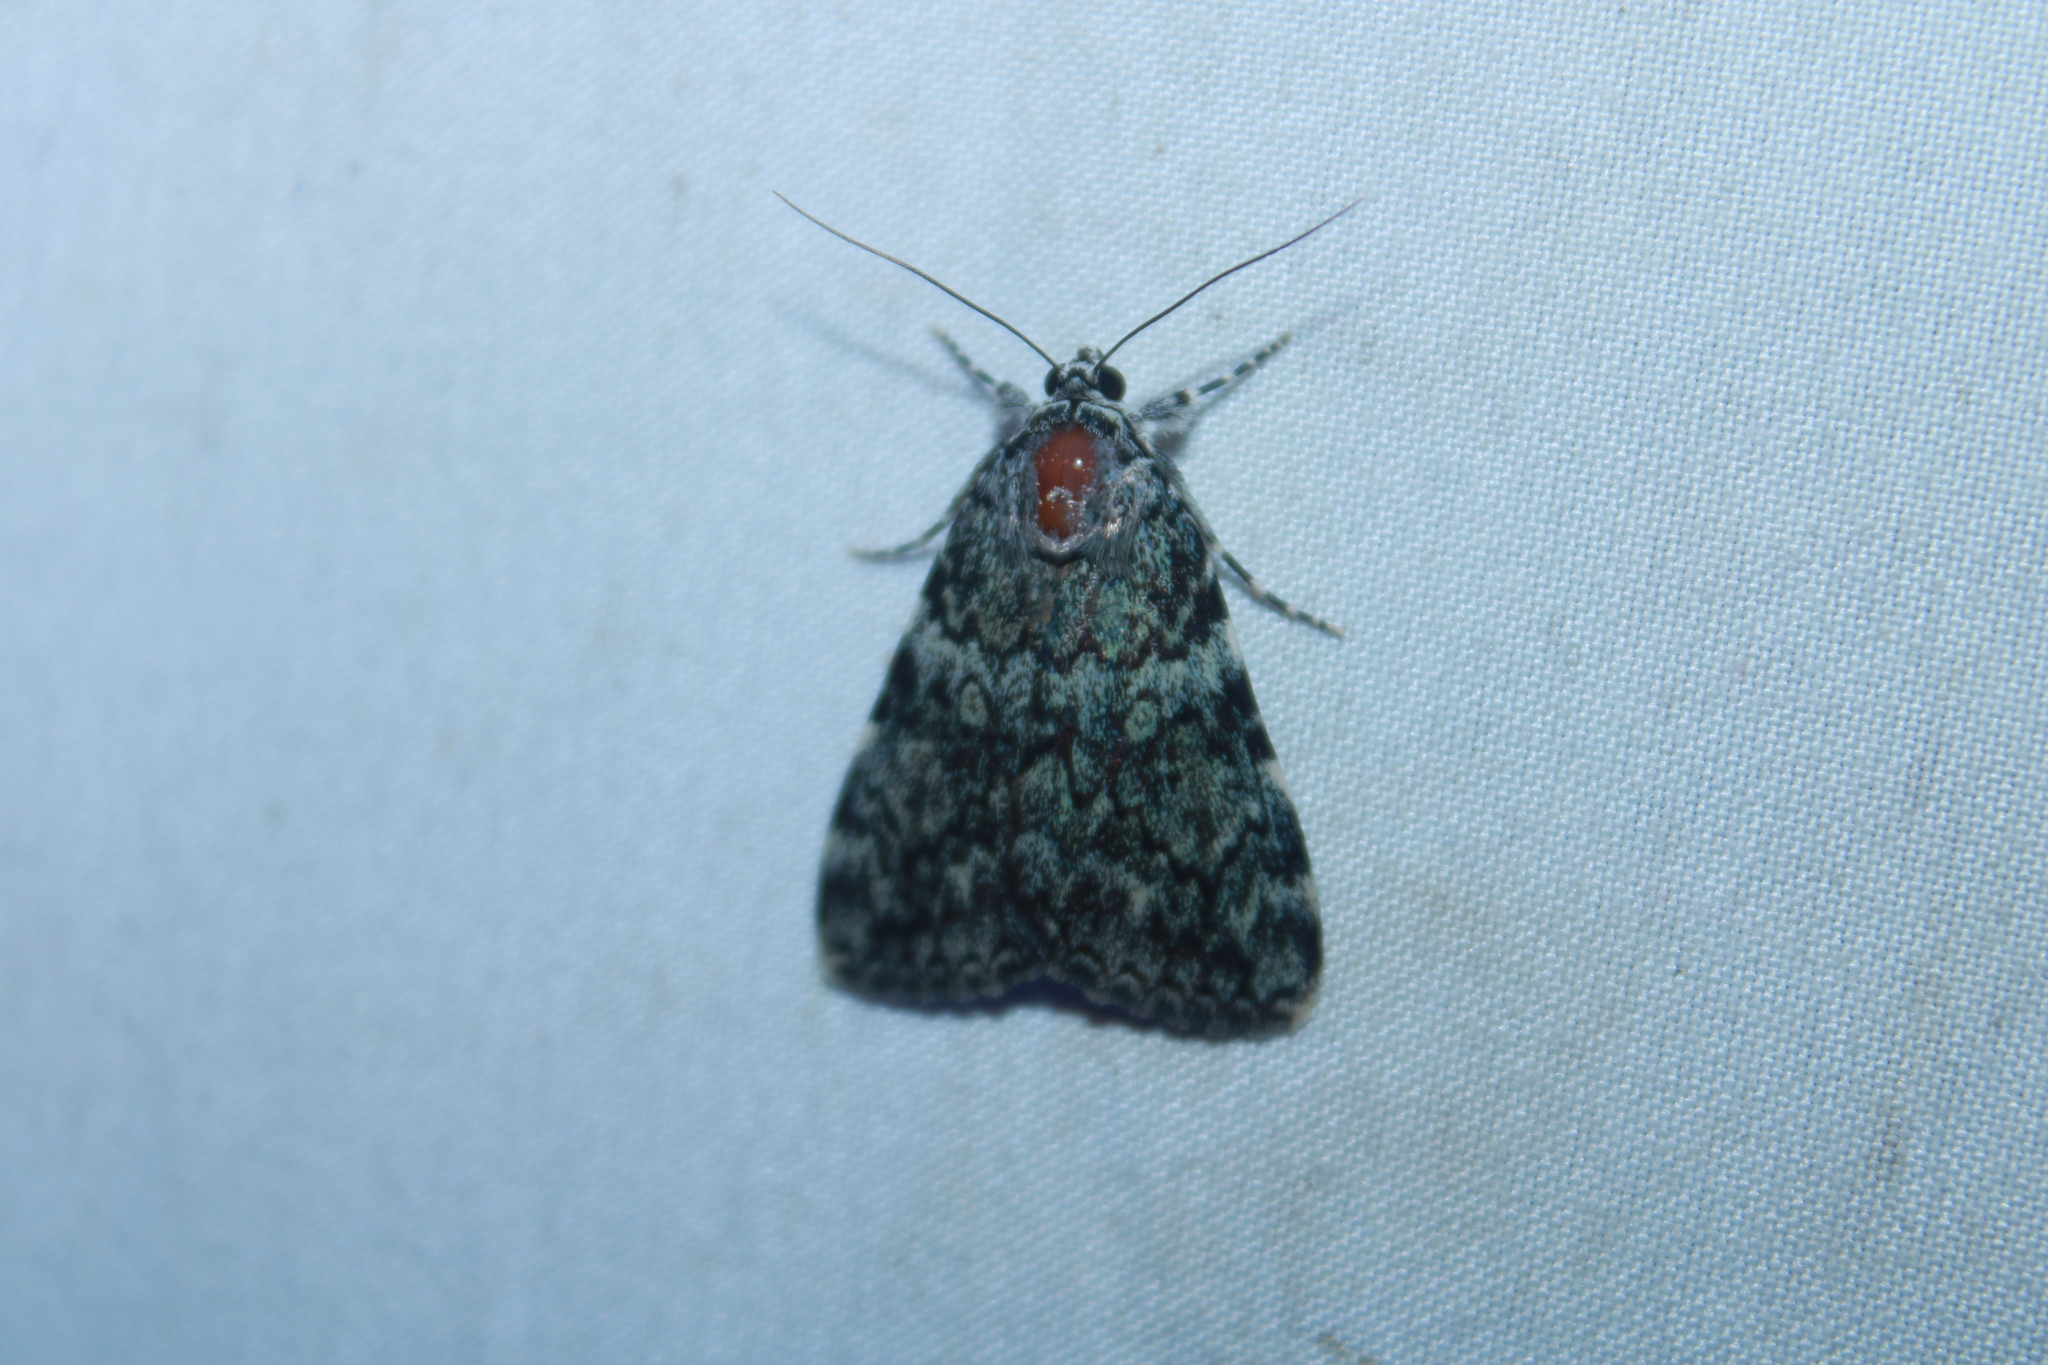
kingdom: Animalia
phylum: Arthropoda
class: Insecta
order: Lepidoptera
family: Erebidae
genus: Catocala
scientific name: Catocala lineella
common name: Little lined underwing
